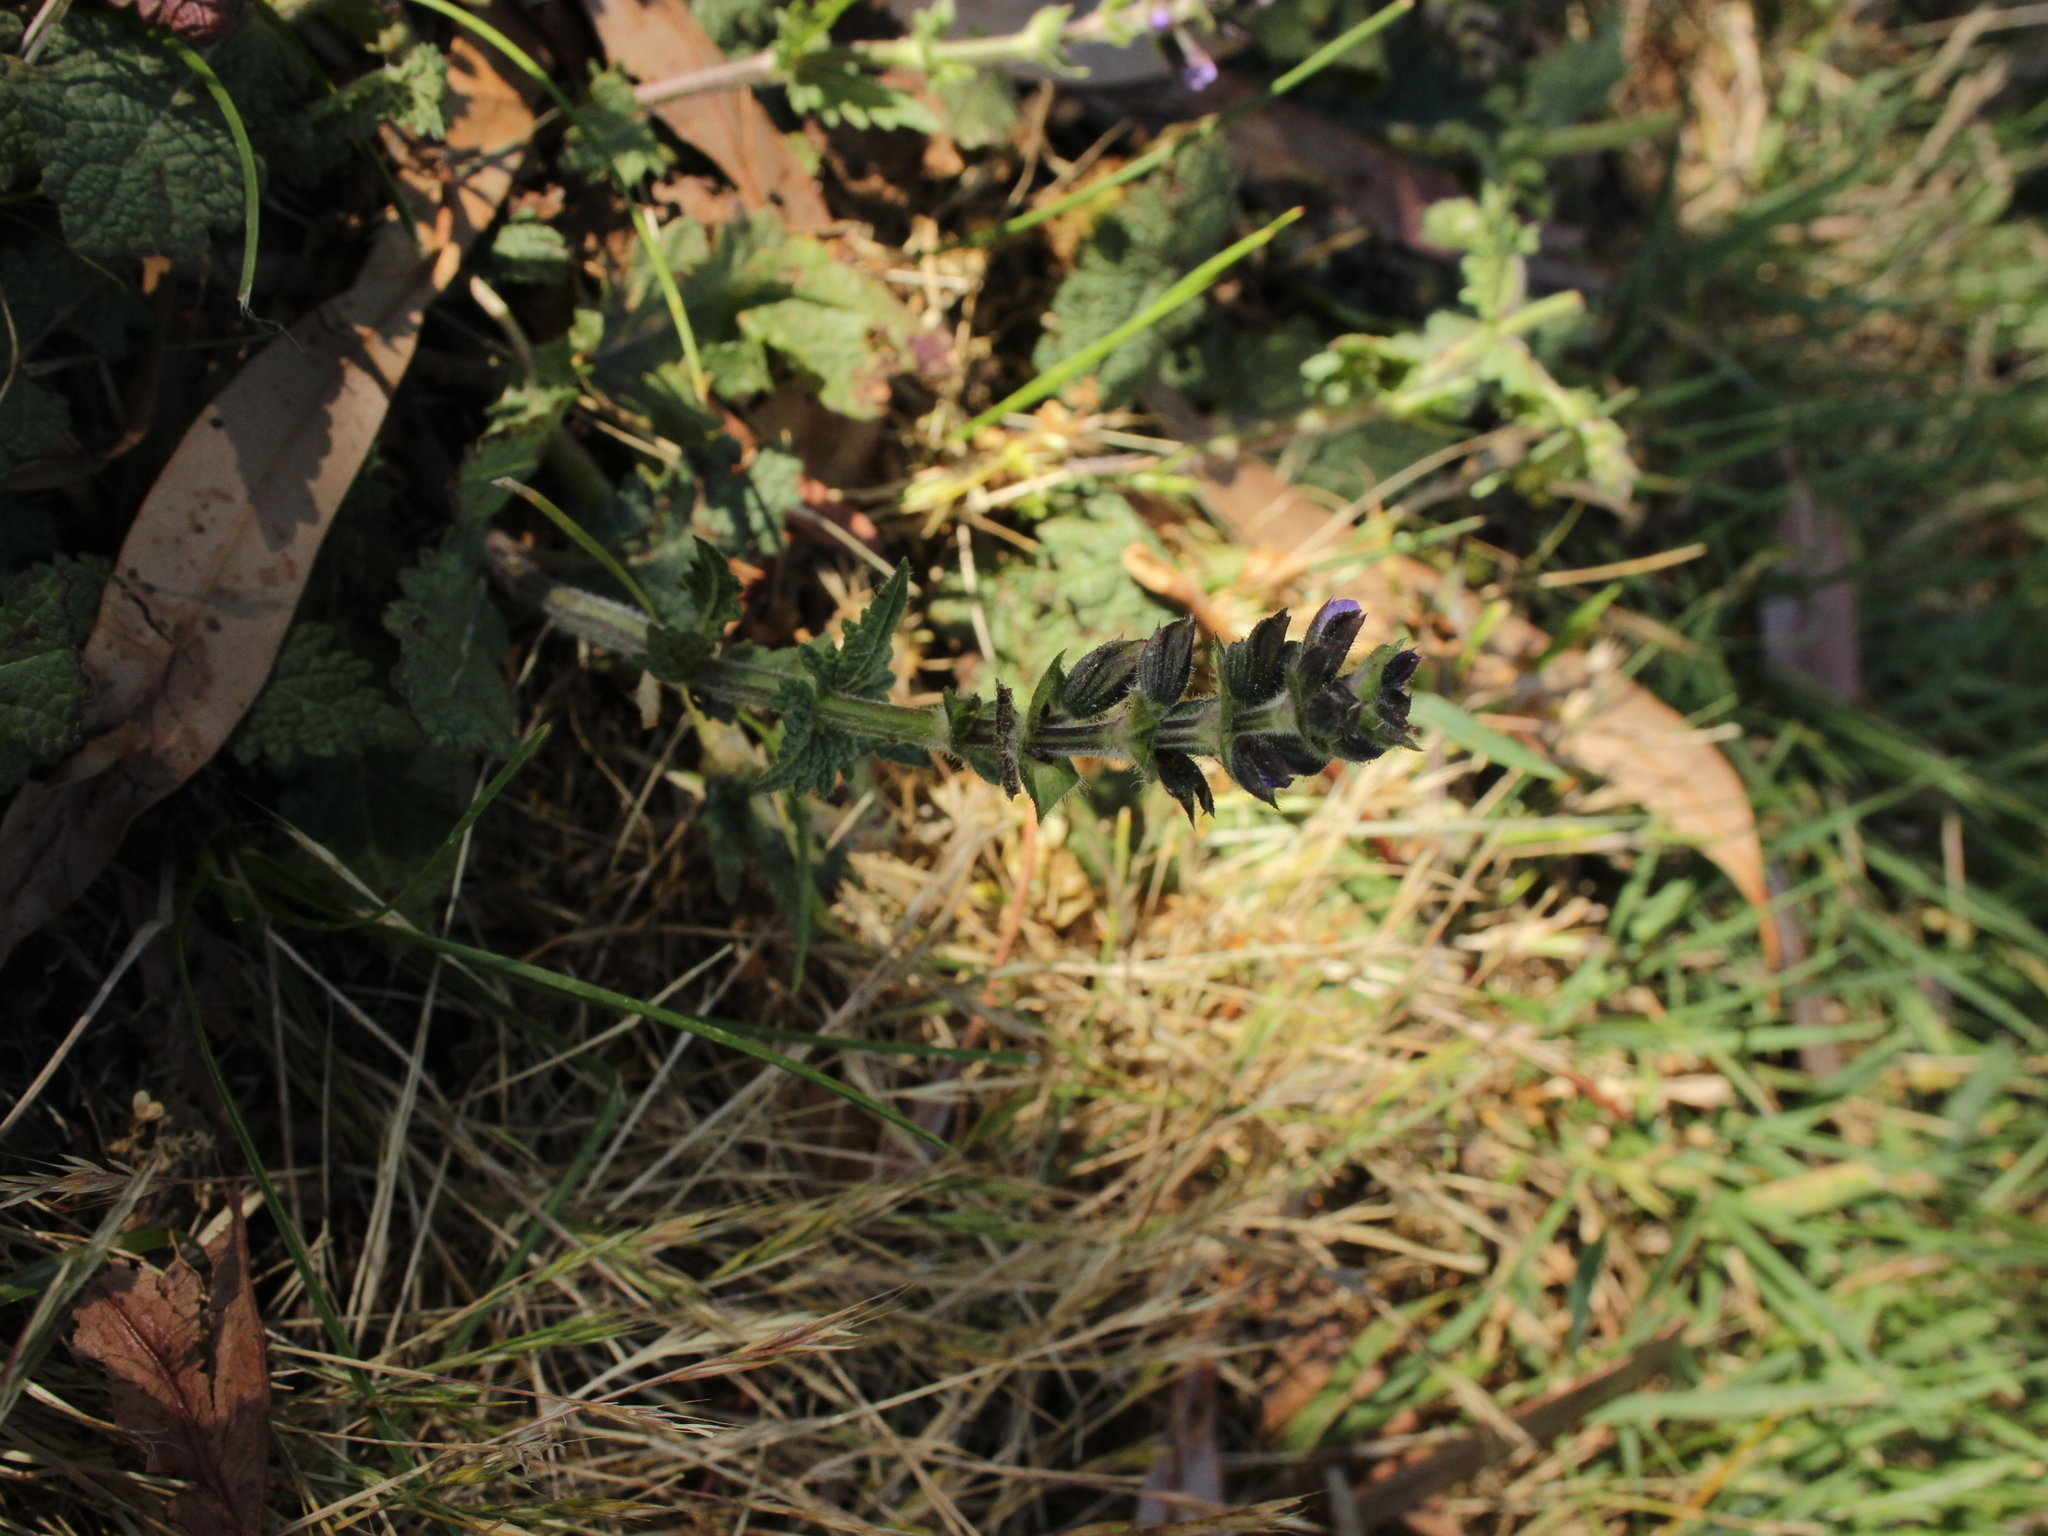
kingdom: Plantae
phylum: Tracheophyta
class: Magnoliopsida
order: Lamiales
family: Lamiaceae
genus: Salvia
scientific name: Salvia verbenaca
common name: Wild clary
